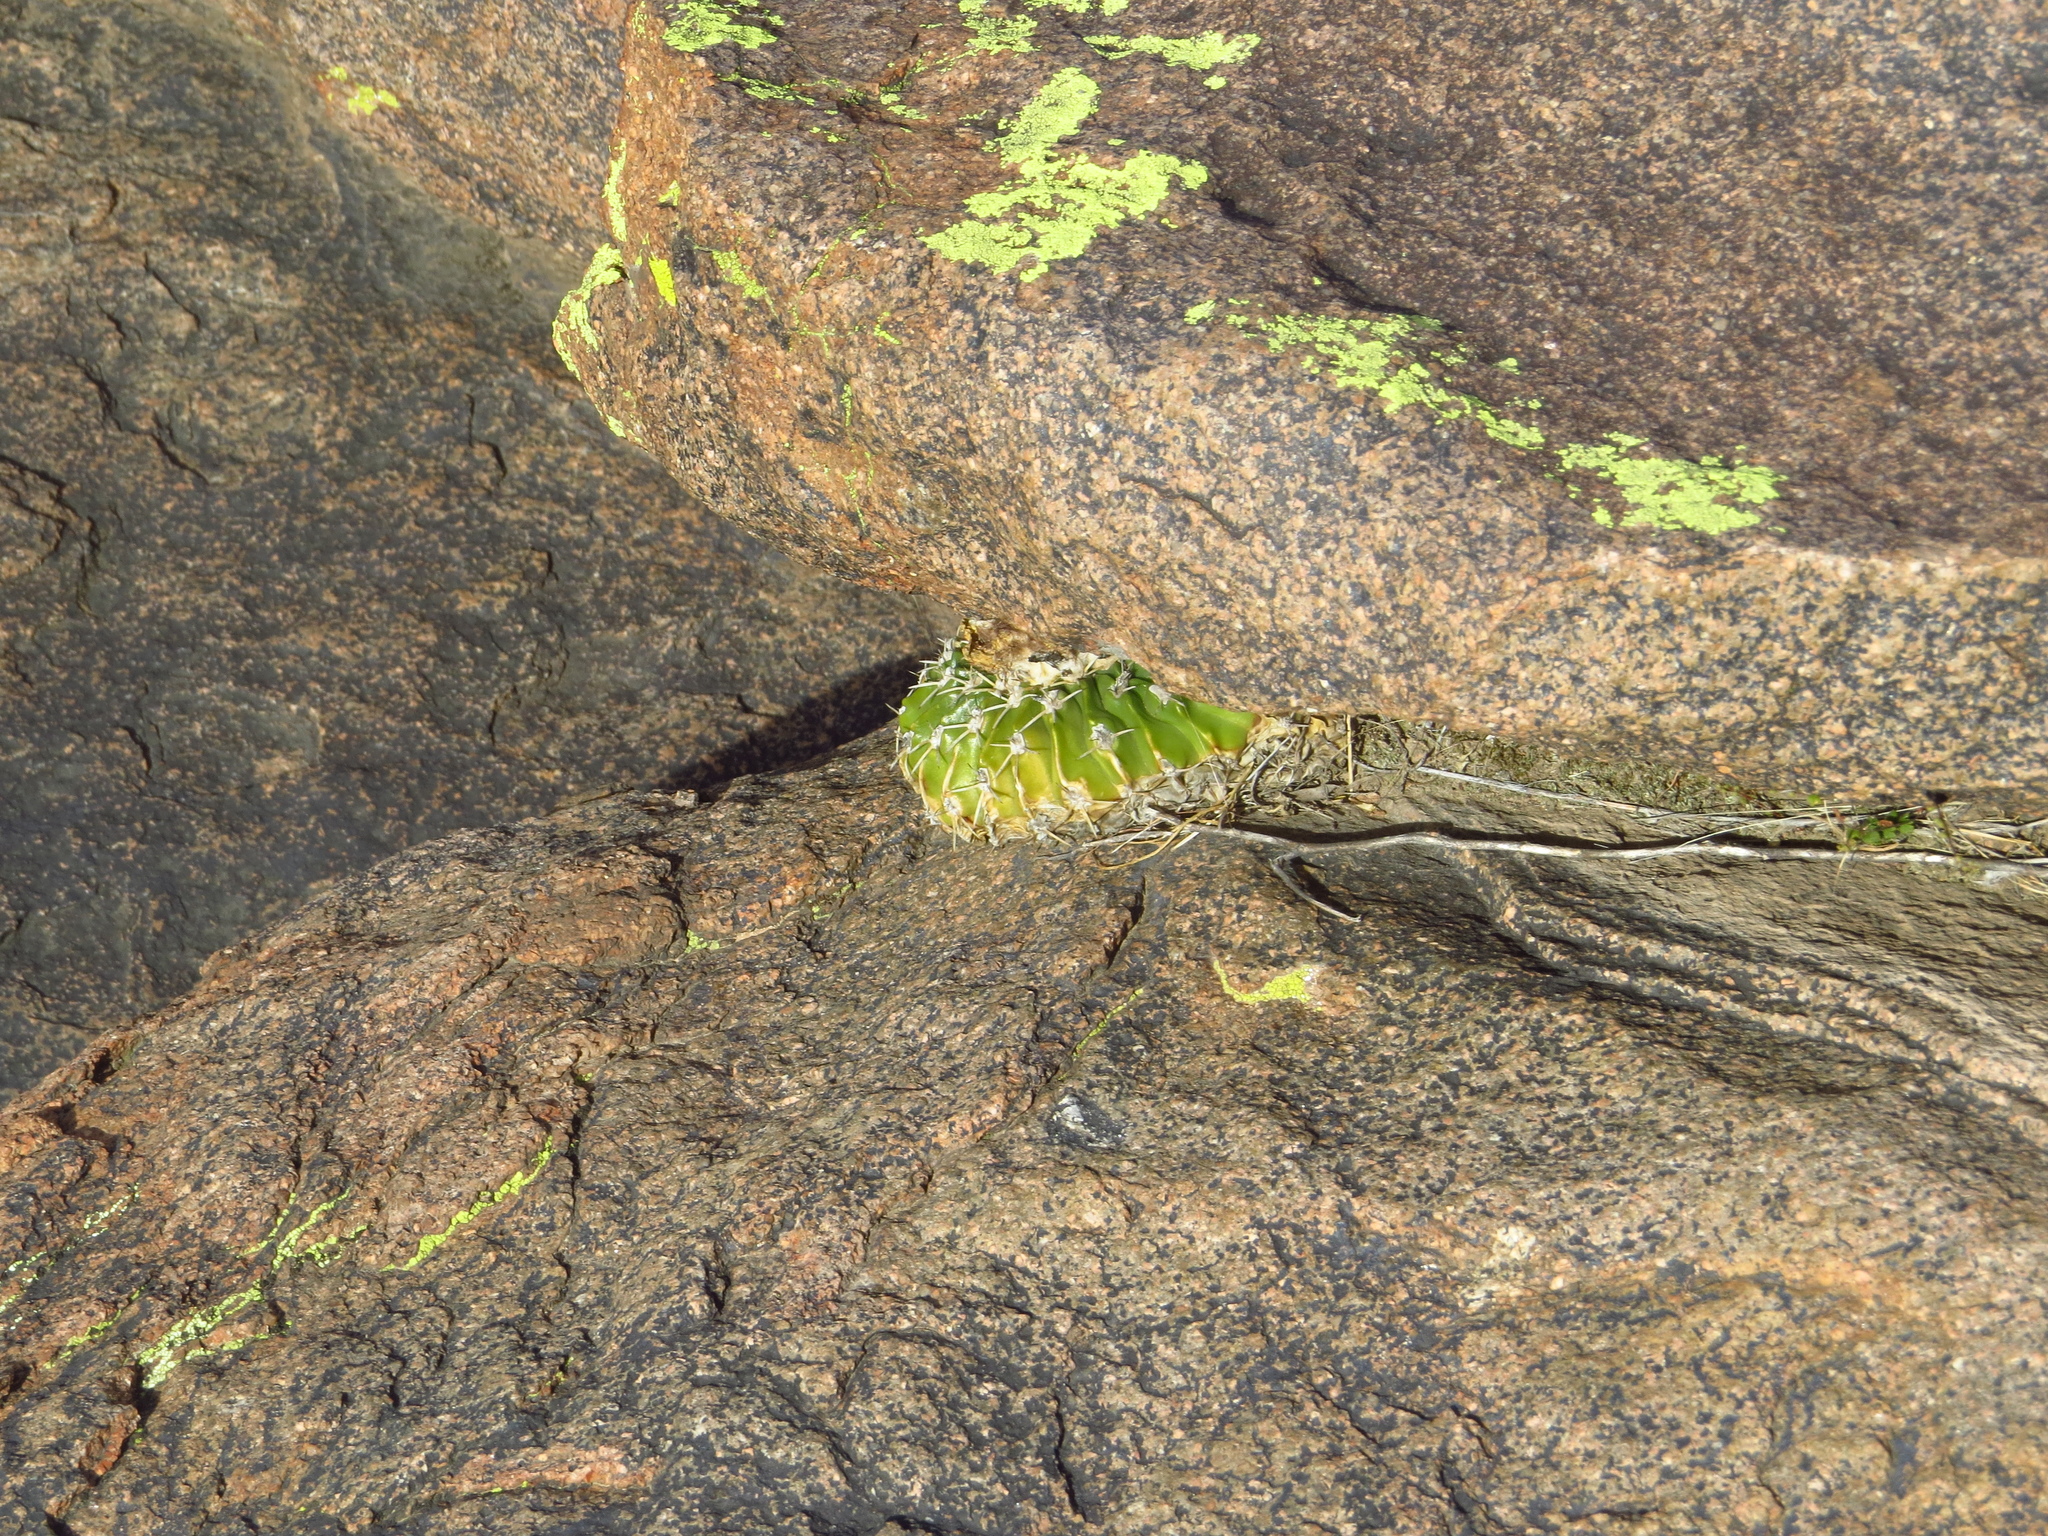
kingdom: Plantae
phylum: Tracheophyta
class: Magnoliopsida
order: Caryophyllales
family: Cactaceae
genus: Parodia
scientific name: Parodia erinacea
